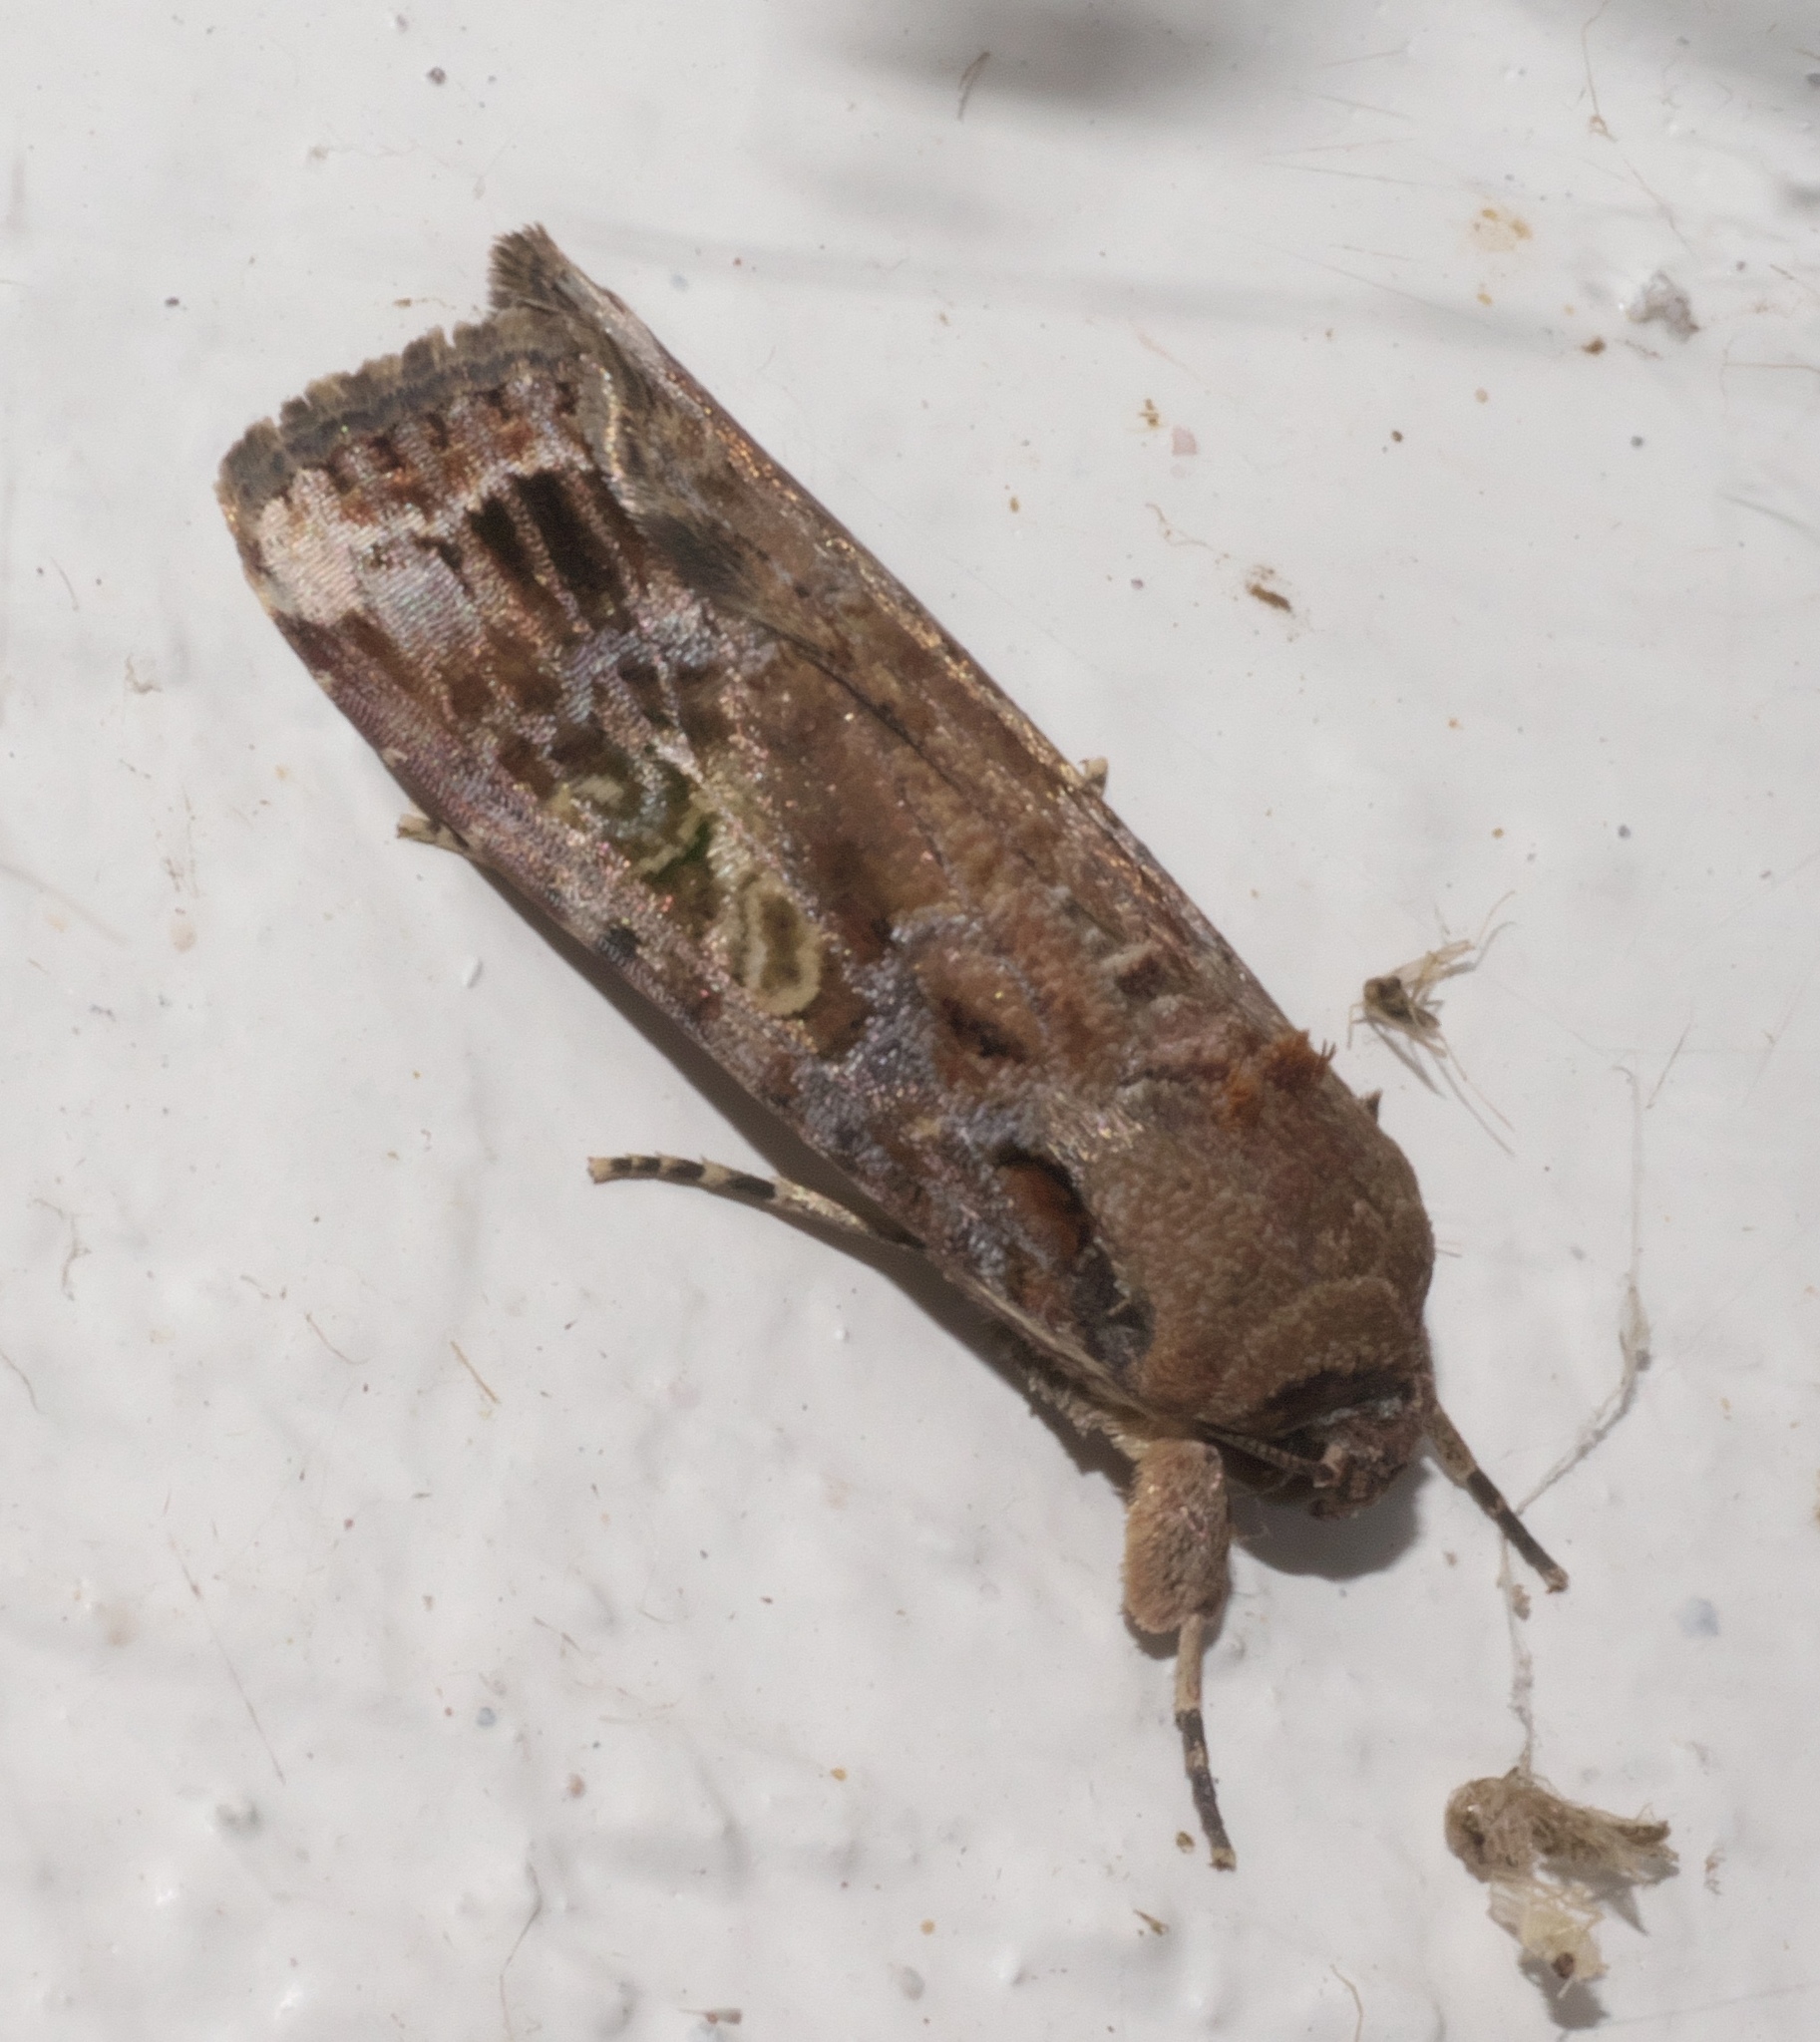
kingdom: Animalia
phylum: Arthropoda
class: Insecta
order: Lepidoptera
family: Noctuidae
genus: Spodoptera
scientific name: Spodoptera frugiperda
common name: Fall armyworm
